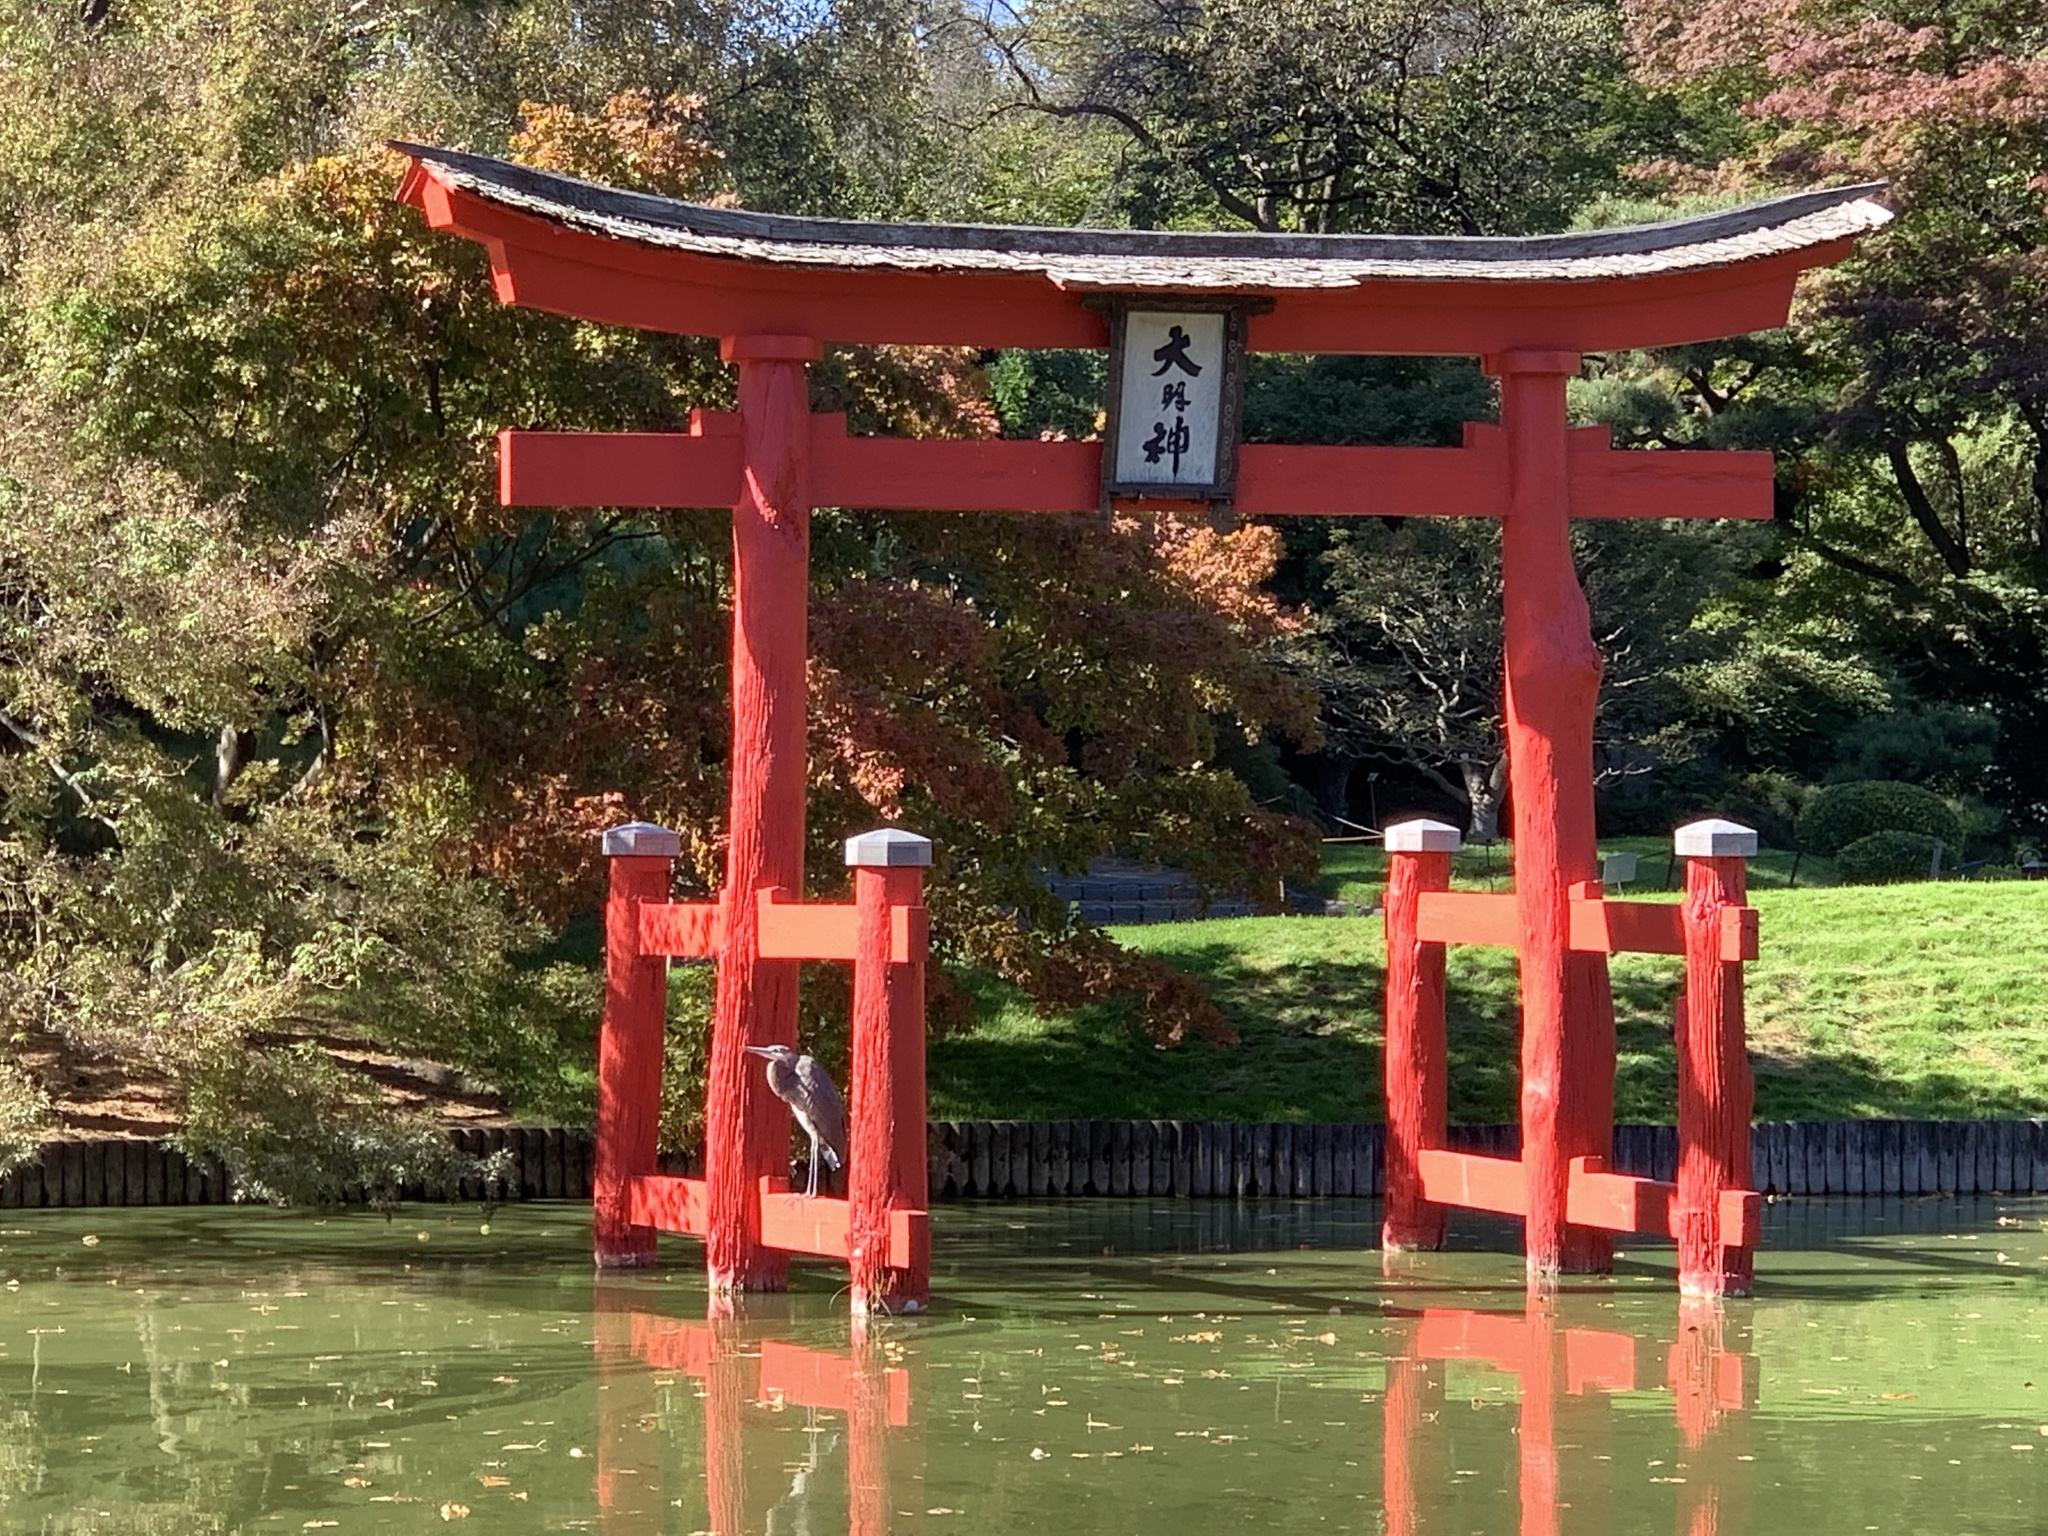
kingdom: Animalia
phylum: Chordata
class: Aves
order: Pelecaniformes
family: Ardeidae
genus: Ardea
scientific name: Ardea herodias
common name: Great blue heron
